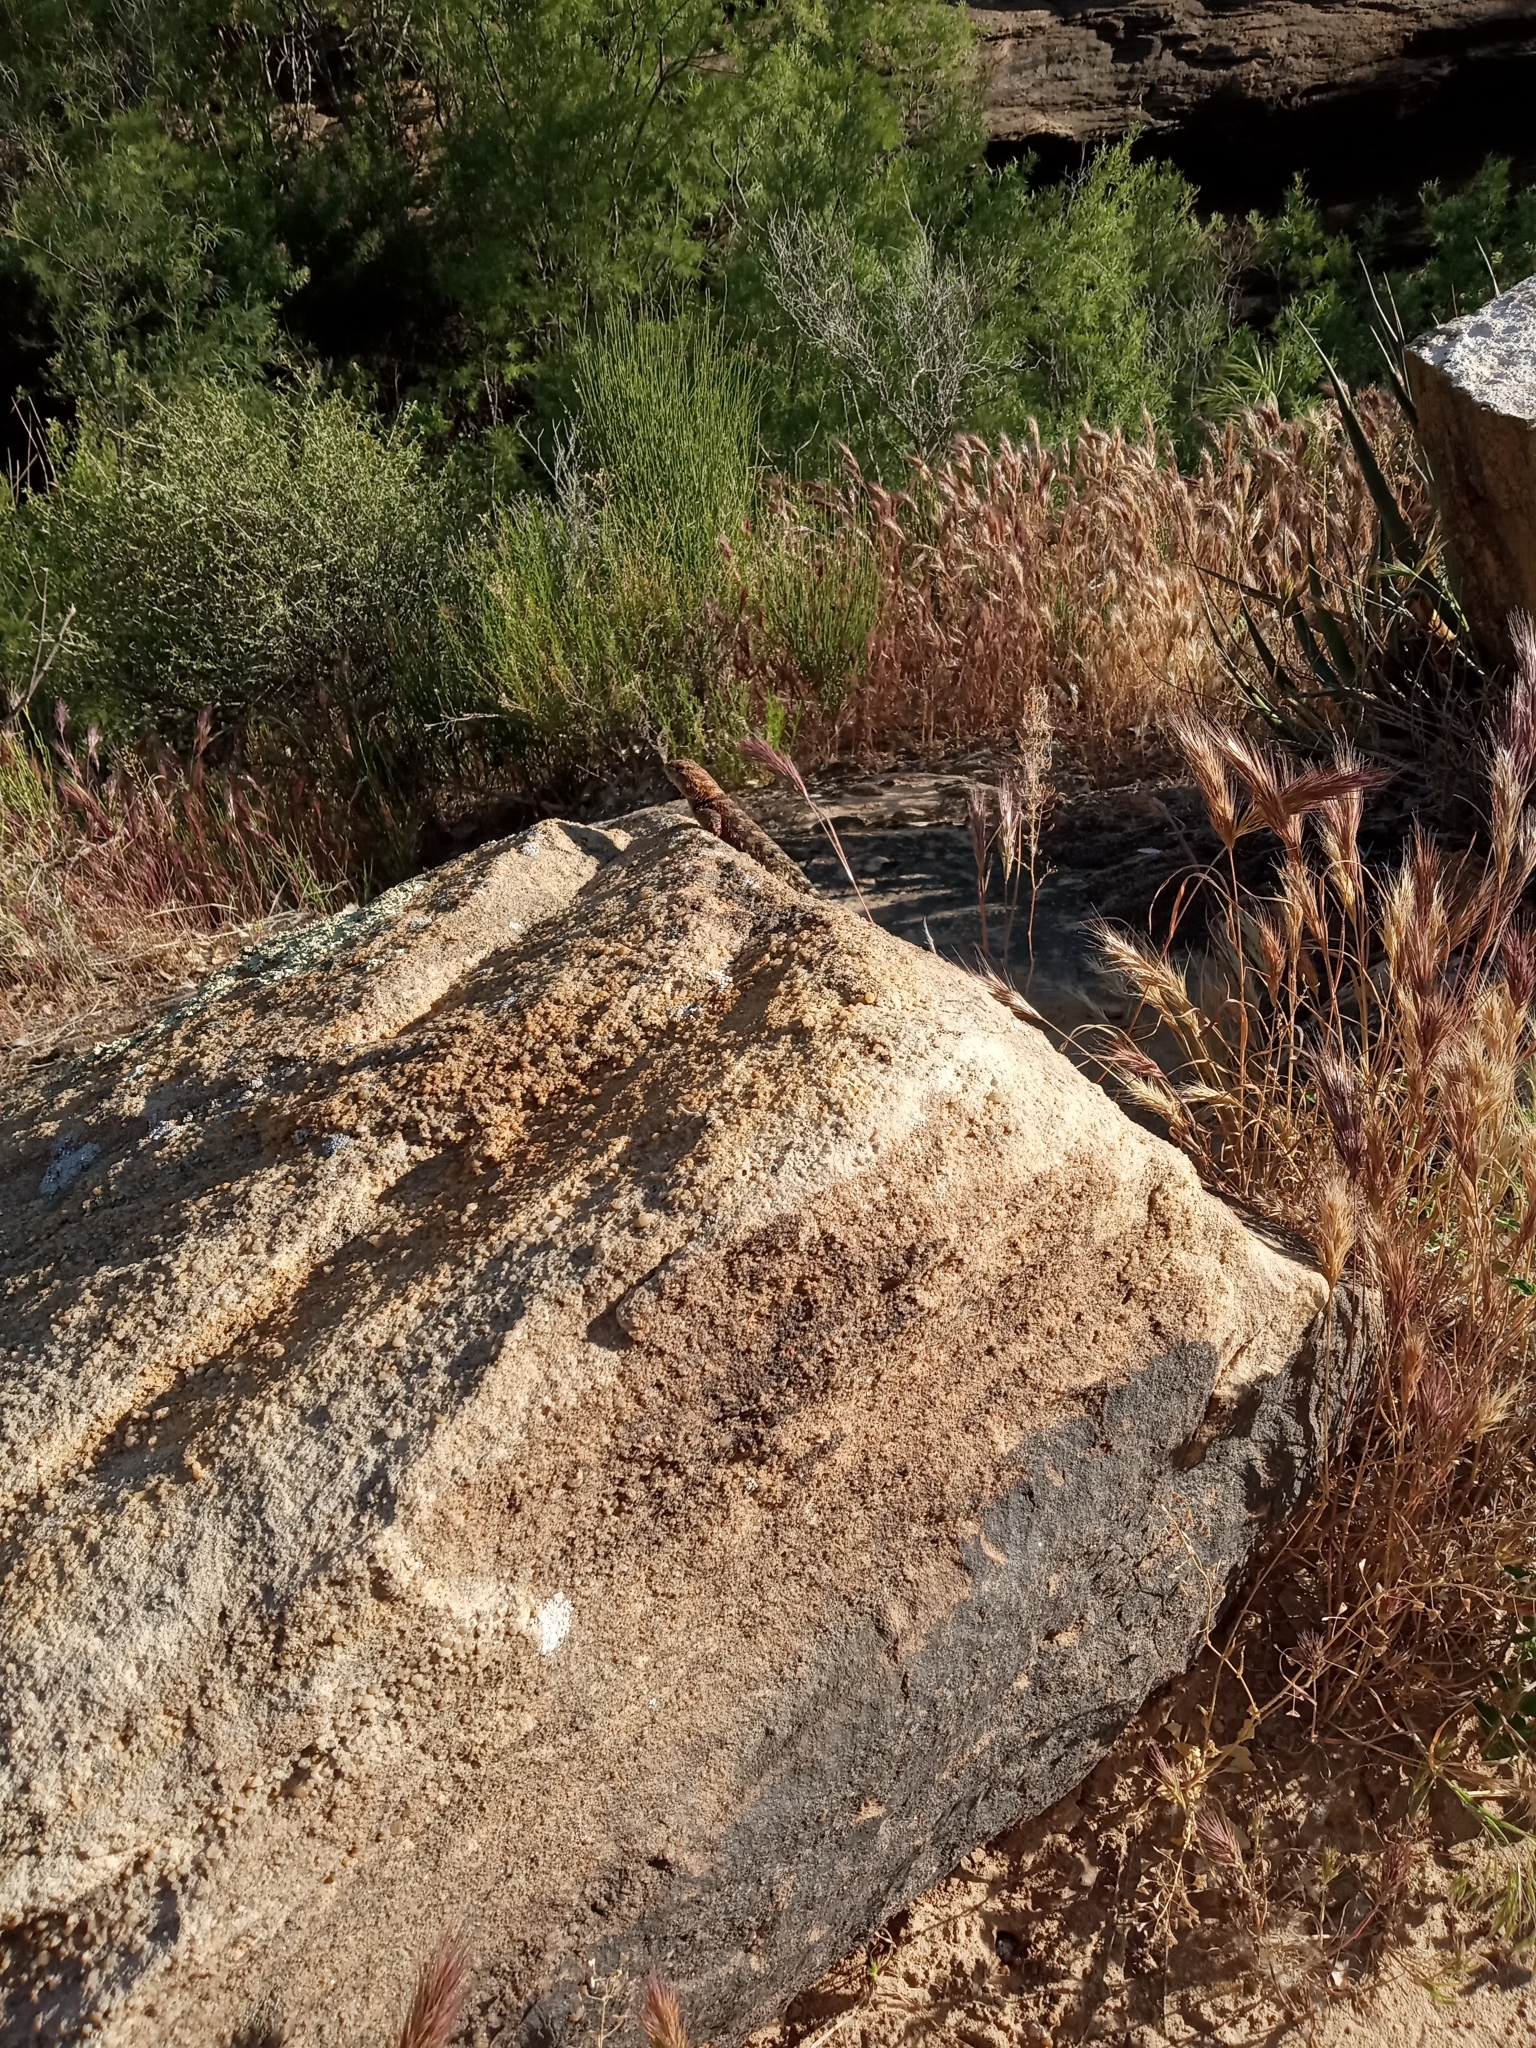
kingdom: Animalia
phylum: Chordata
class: Squamata
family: Phrynosomatidae
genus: Sceloporus
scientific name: Sceloporus magister
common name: Desert spiny lizard
